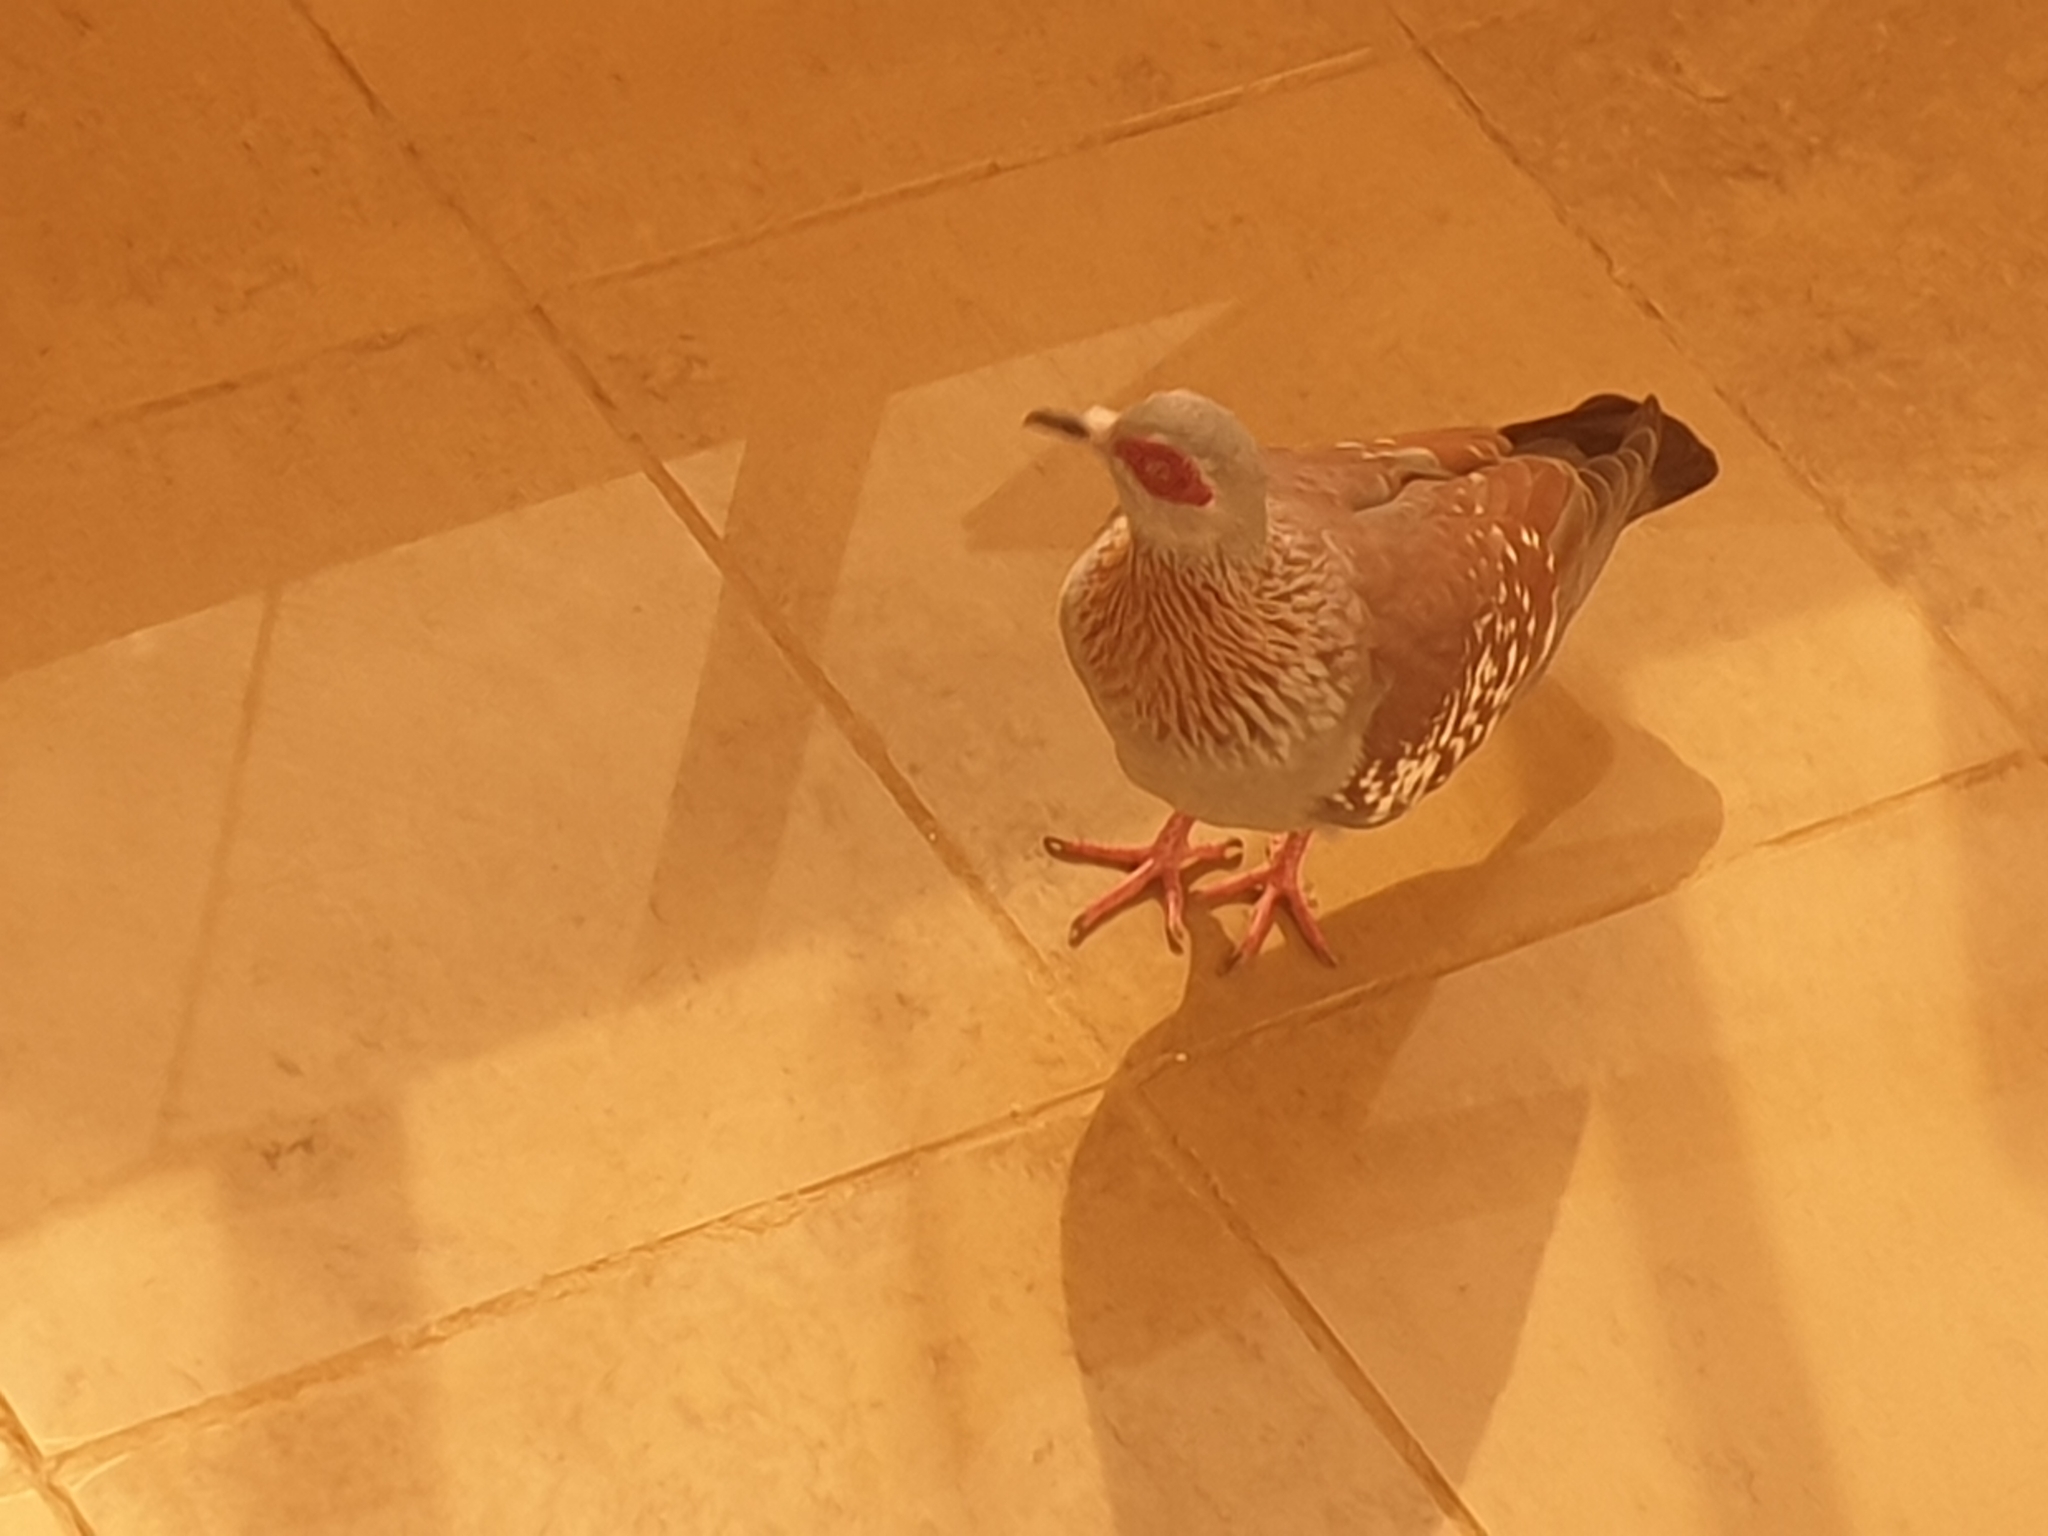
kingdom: Animalia
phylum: Chordata
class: Aves
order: Columbiformes
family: Columbidae
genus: Columba
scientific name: Columba guinea
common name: Speckled pigeon
